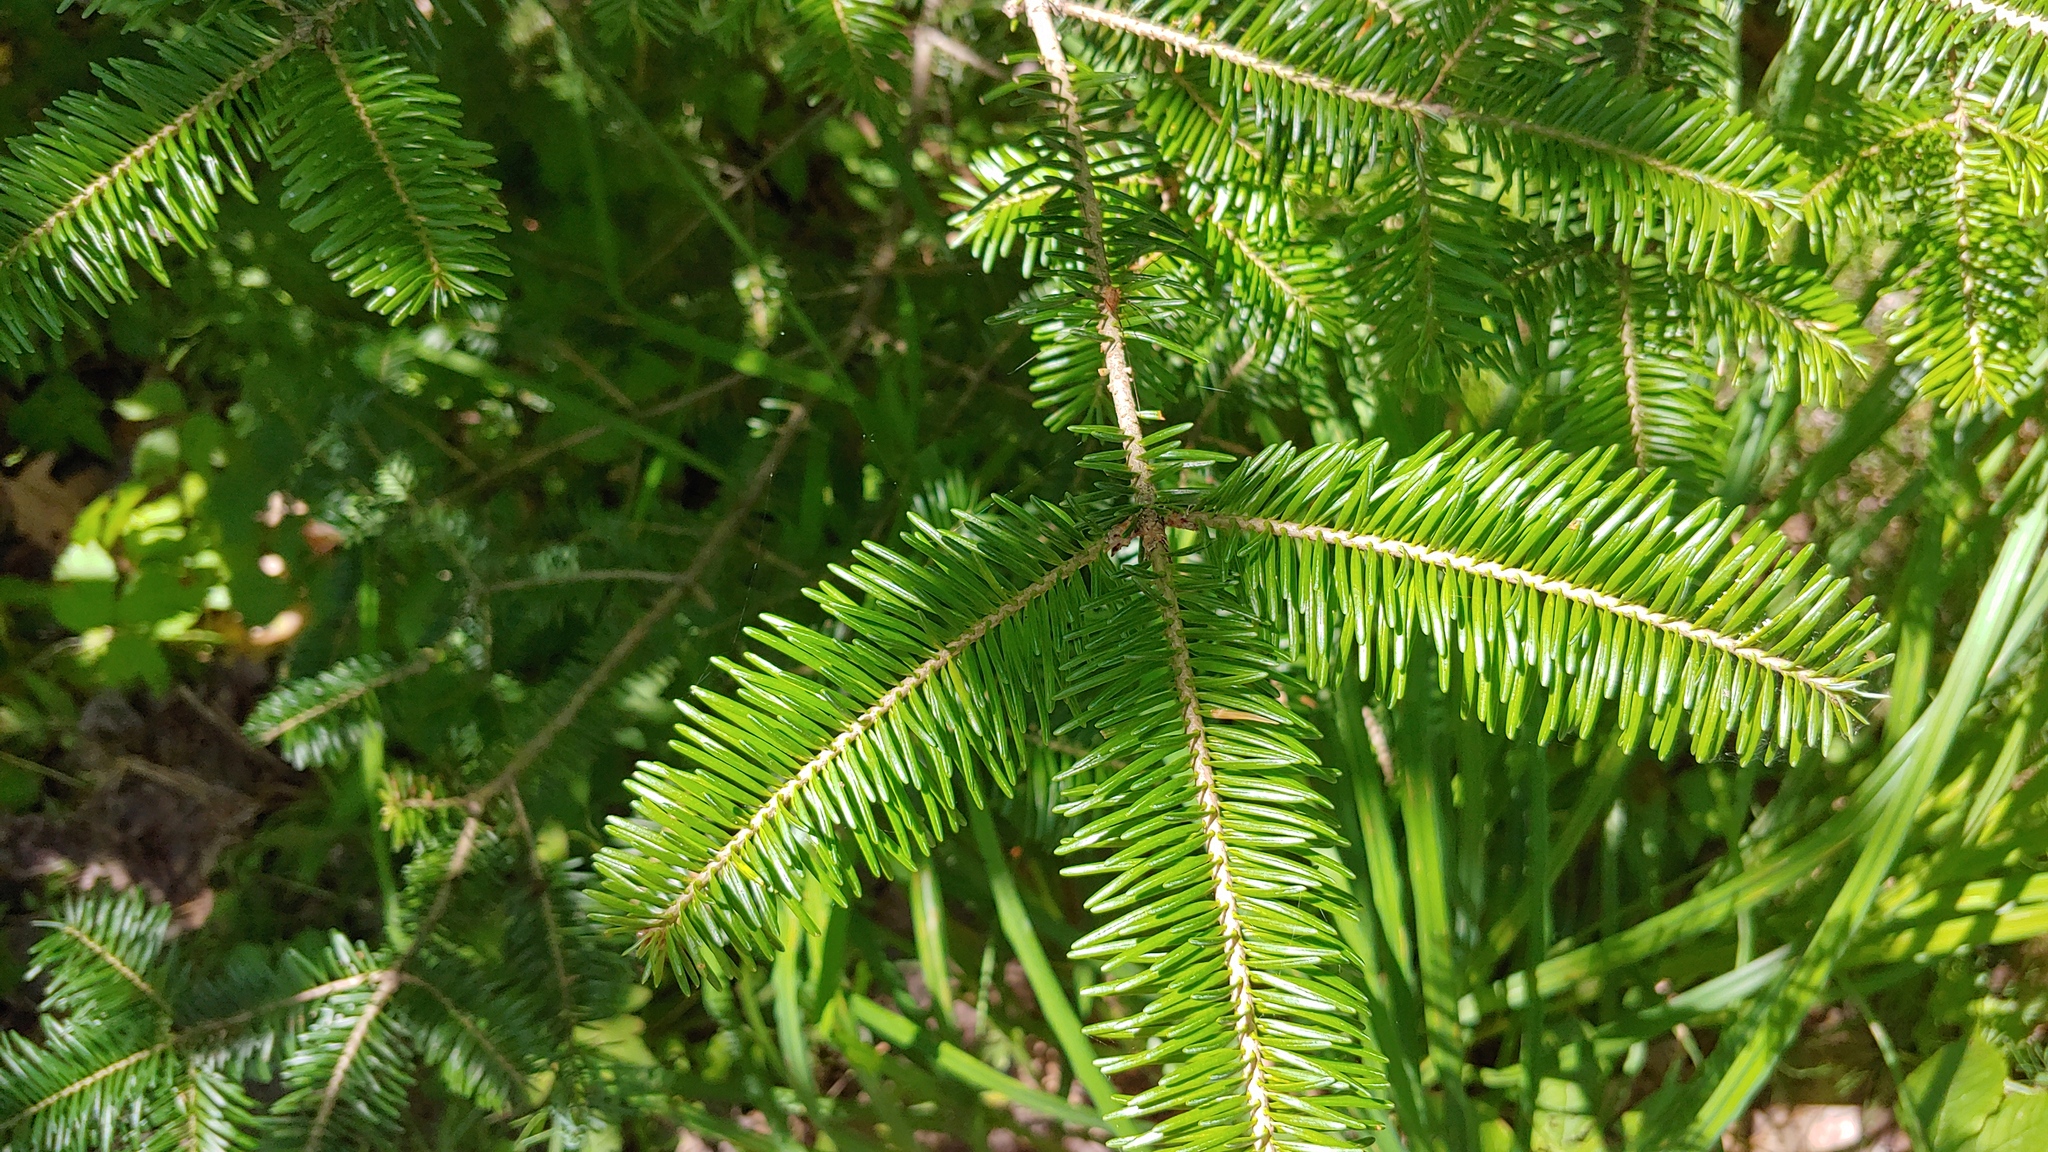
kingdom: Plantae
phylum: Tracheophyta
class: Pinopsida
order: Pinales
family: Pinaceae
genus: Abies
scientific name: Abies balsamea
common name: Balsam fir
